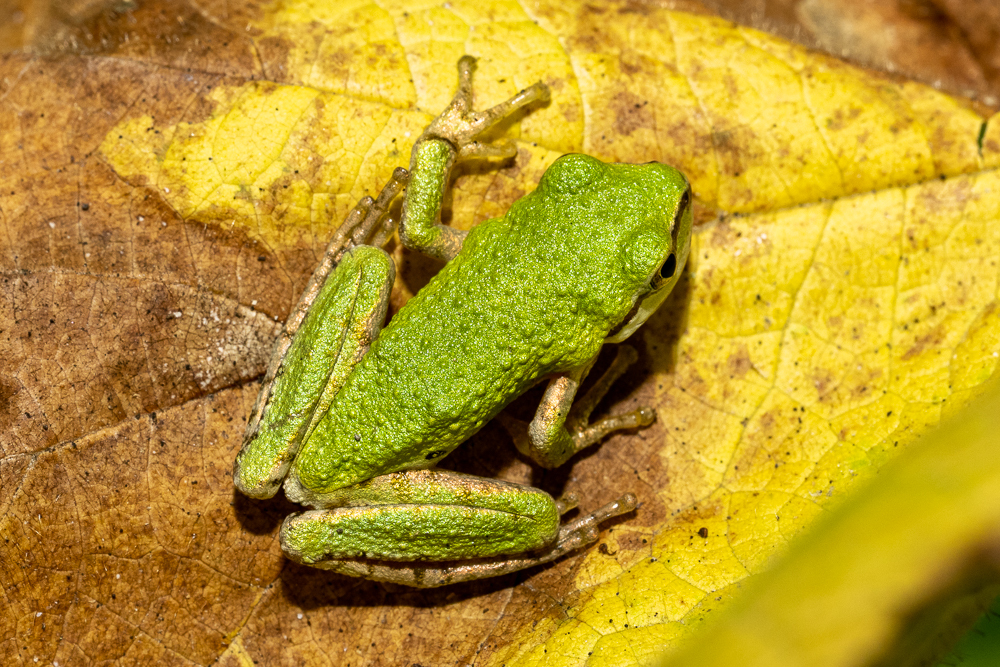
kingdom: Animalia
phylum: Chordata
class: Amphibia
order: Anura
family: Hylidae
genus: Pseudacris
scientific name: Pseudacris regilla
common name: Pacific chorus frog
